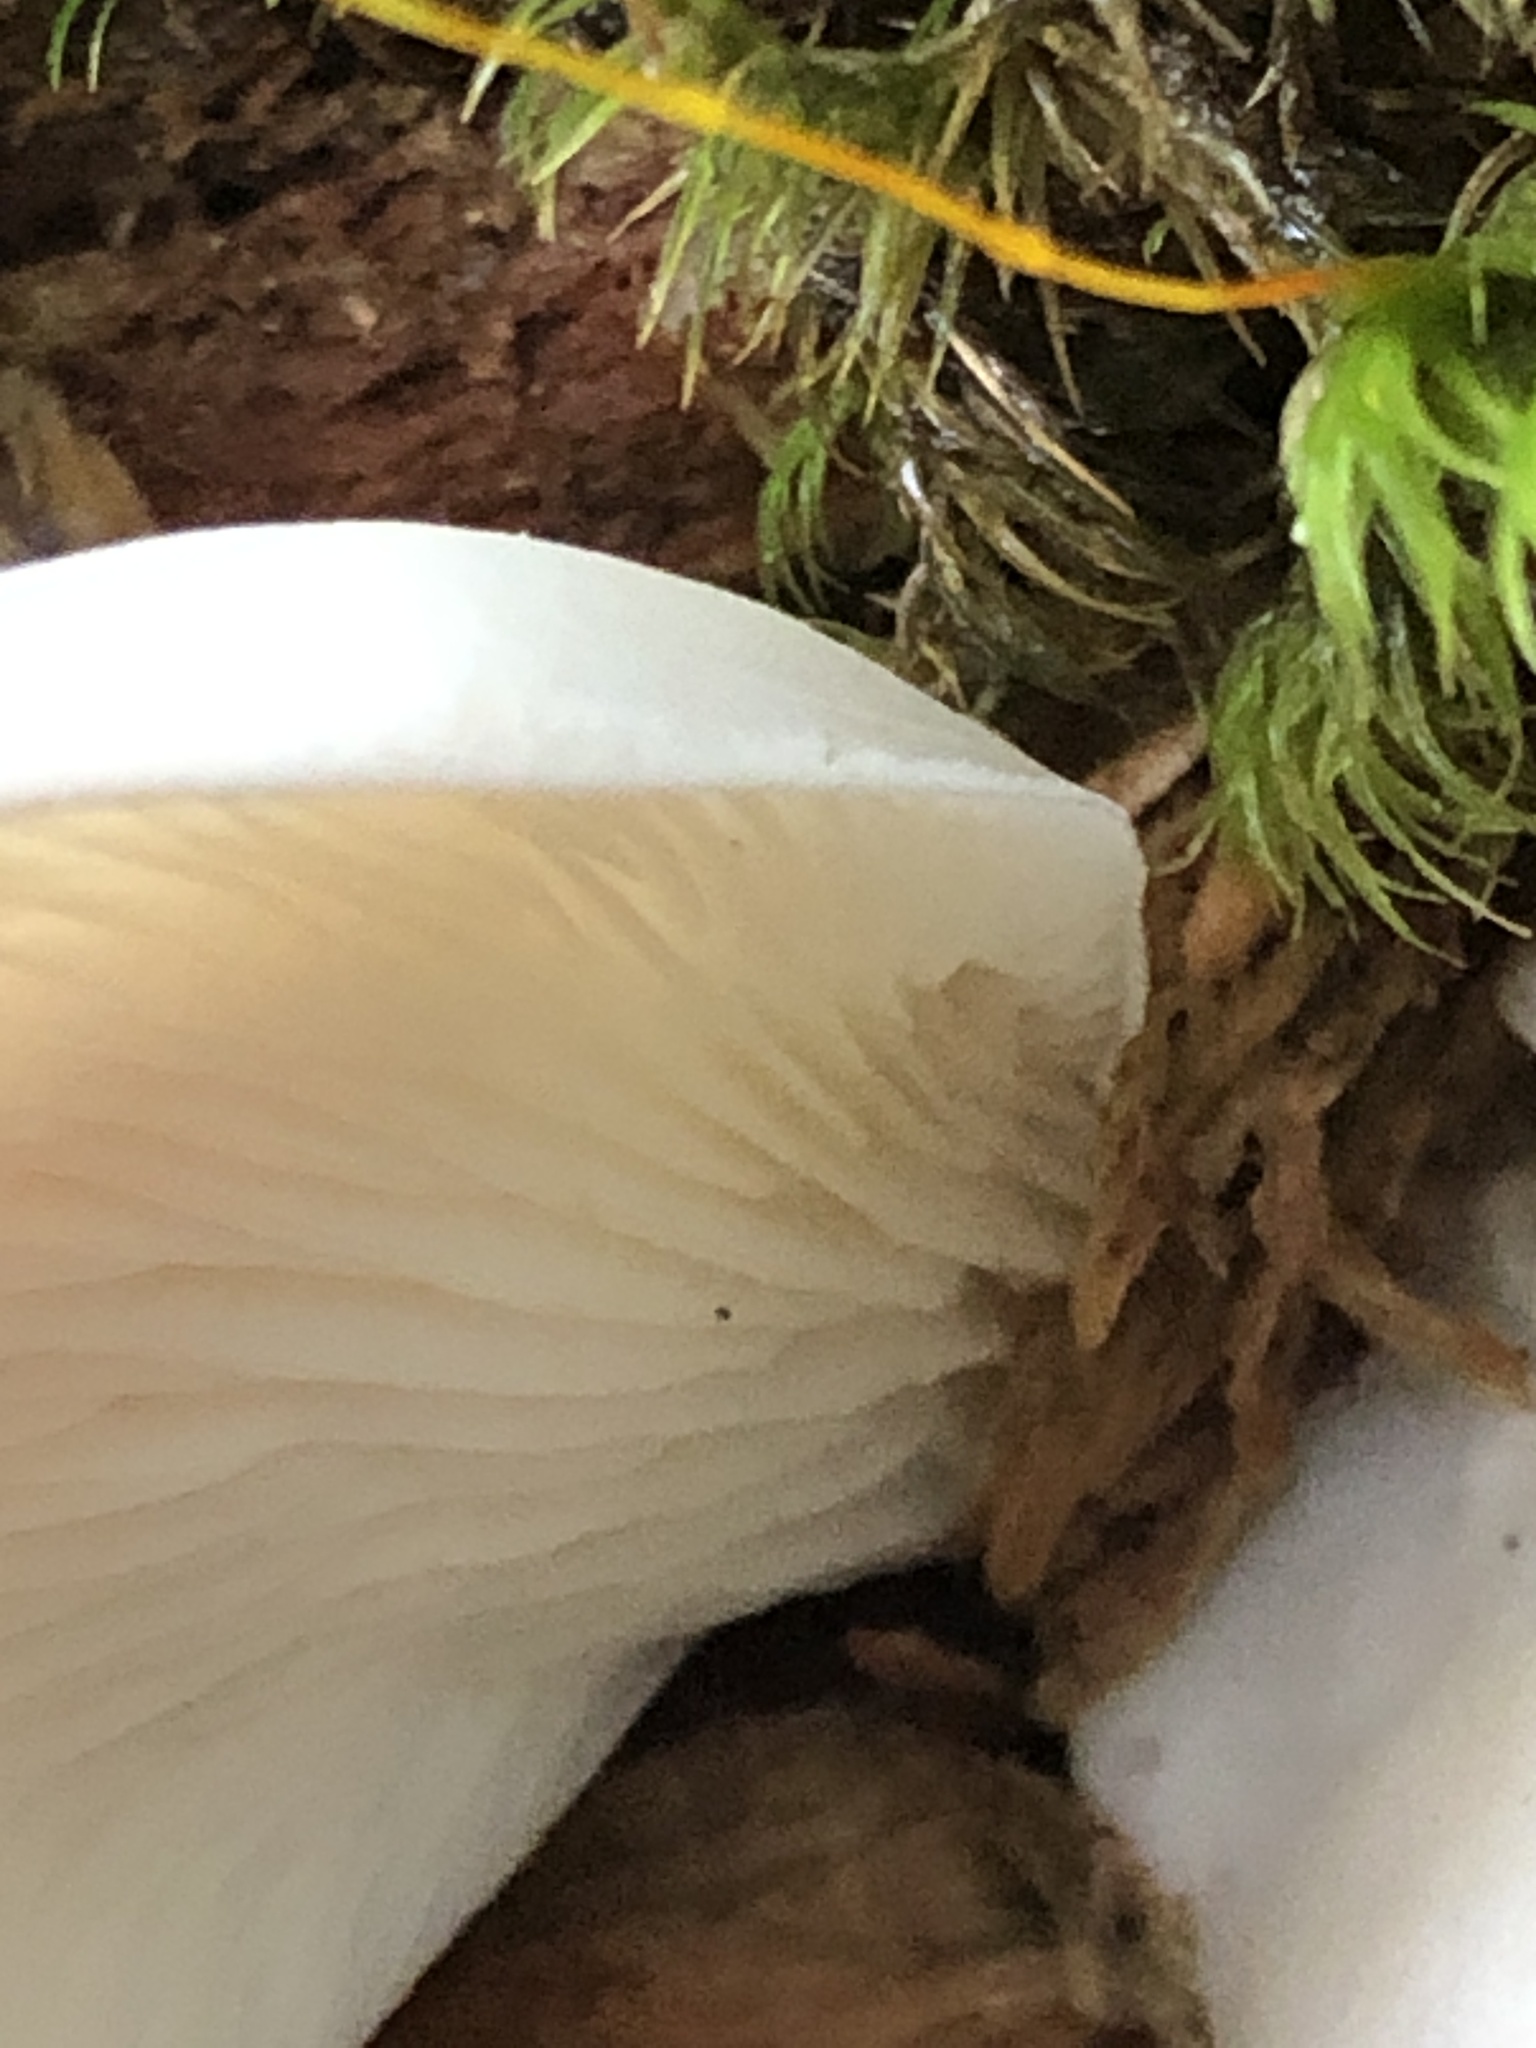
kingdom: Fungi
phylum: Basidiomycota
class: Agaricomycetes
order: Agaricales
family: Marasmiaceae
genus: Pleurocybella
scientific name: Pleurocybella porrigens
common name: Angel's wings
